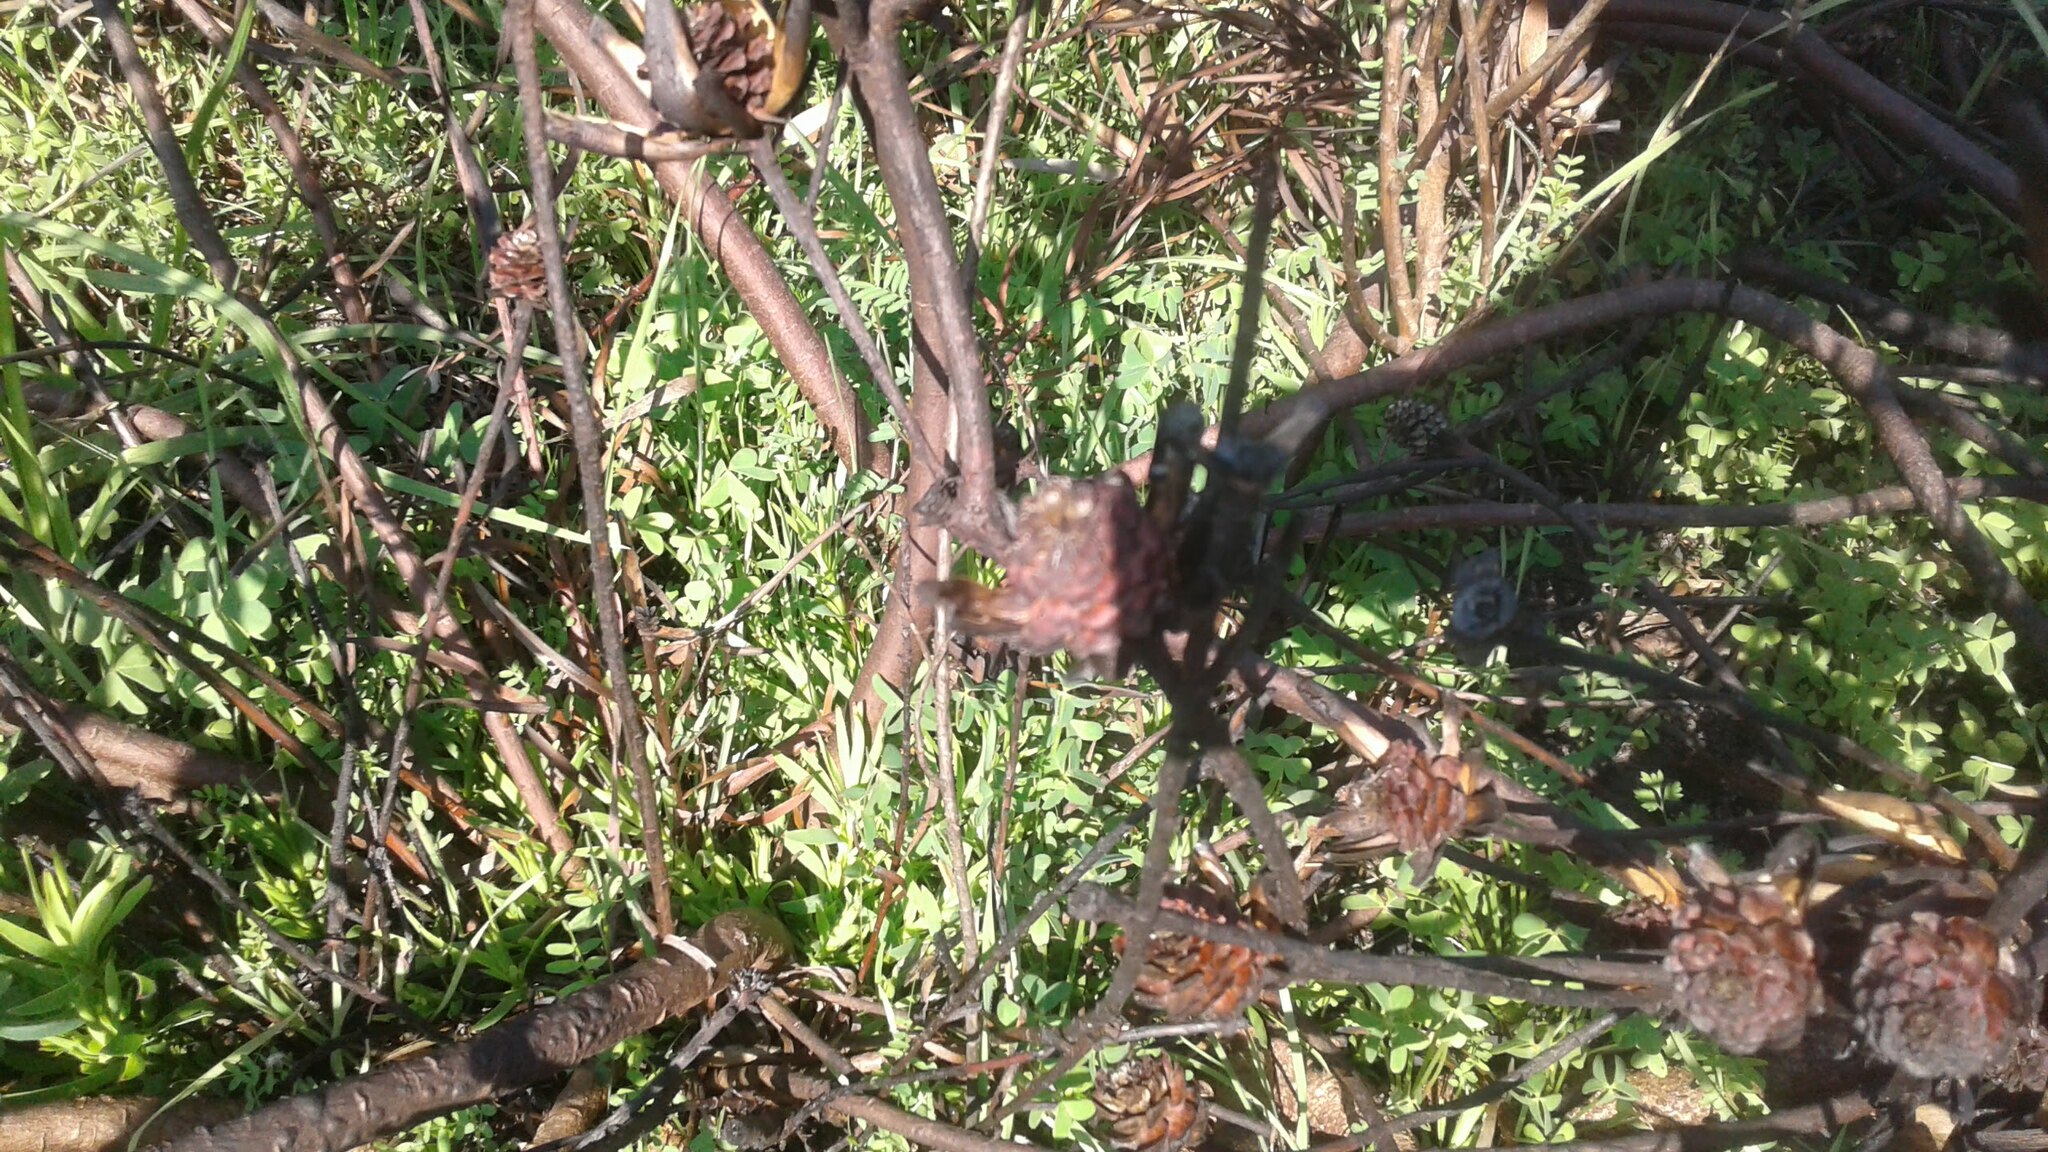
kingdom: Plantae
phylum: Tracheophyta
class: Magnoliopsida
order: Proteales
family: Proteaceae
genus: Leucadendron
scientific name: Leucadendron salignum
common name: Common sunshine conebush
